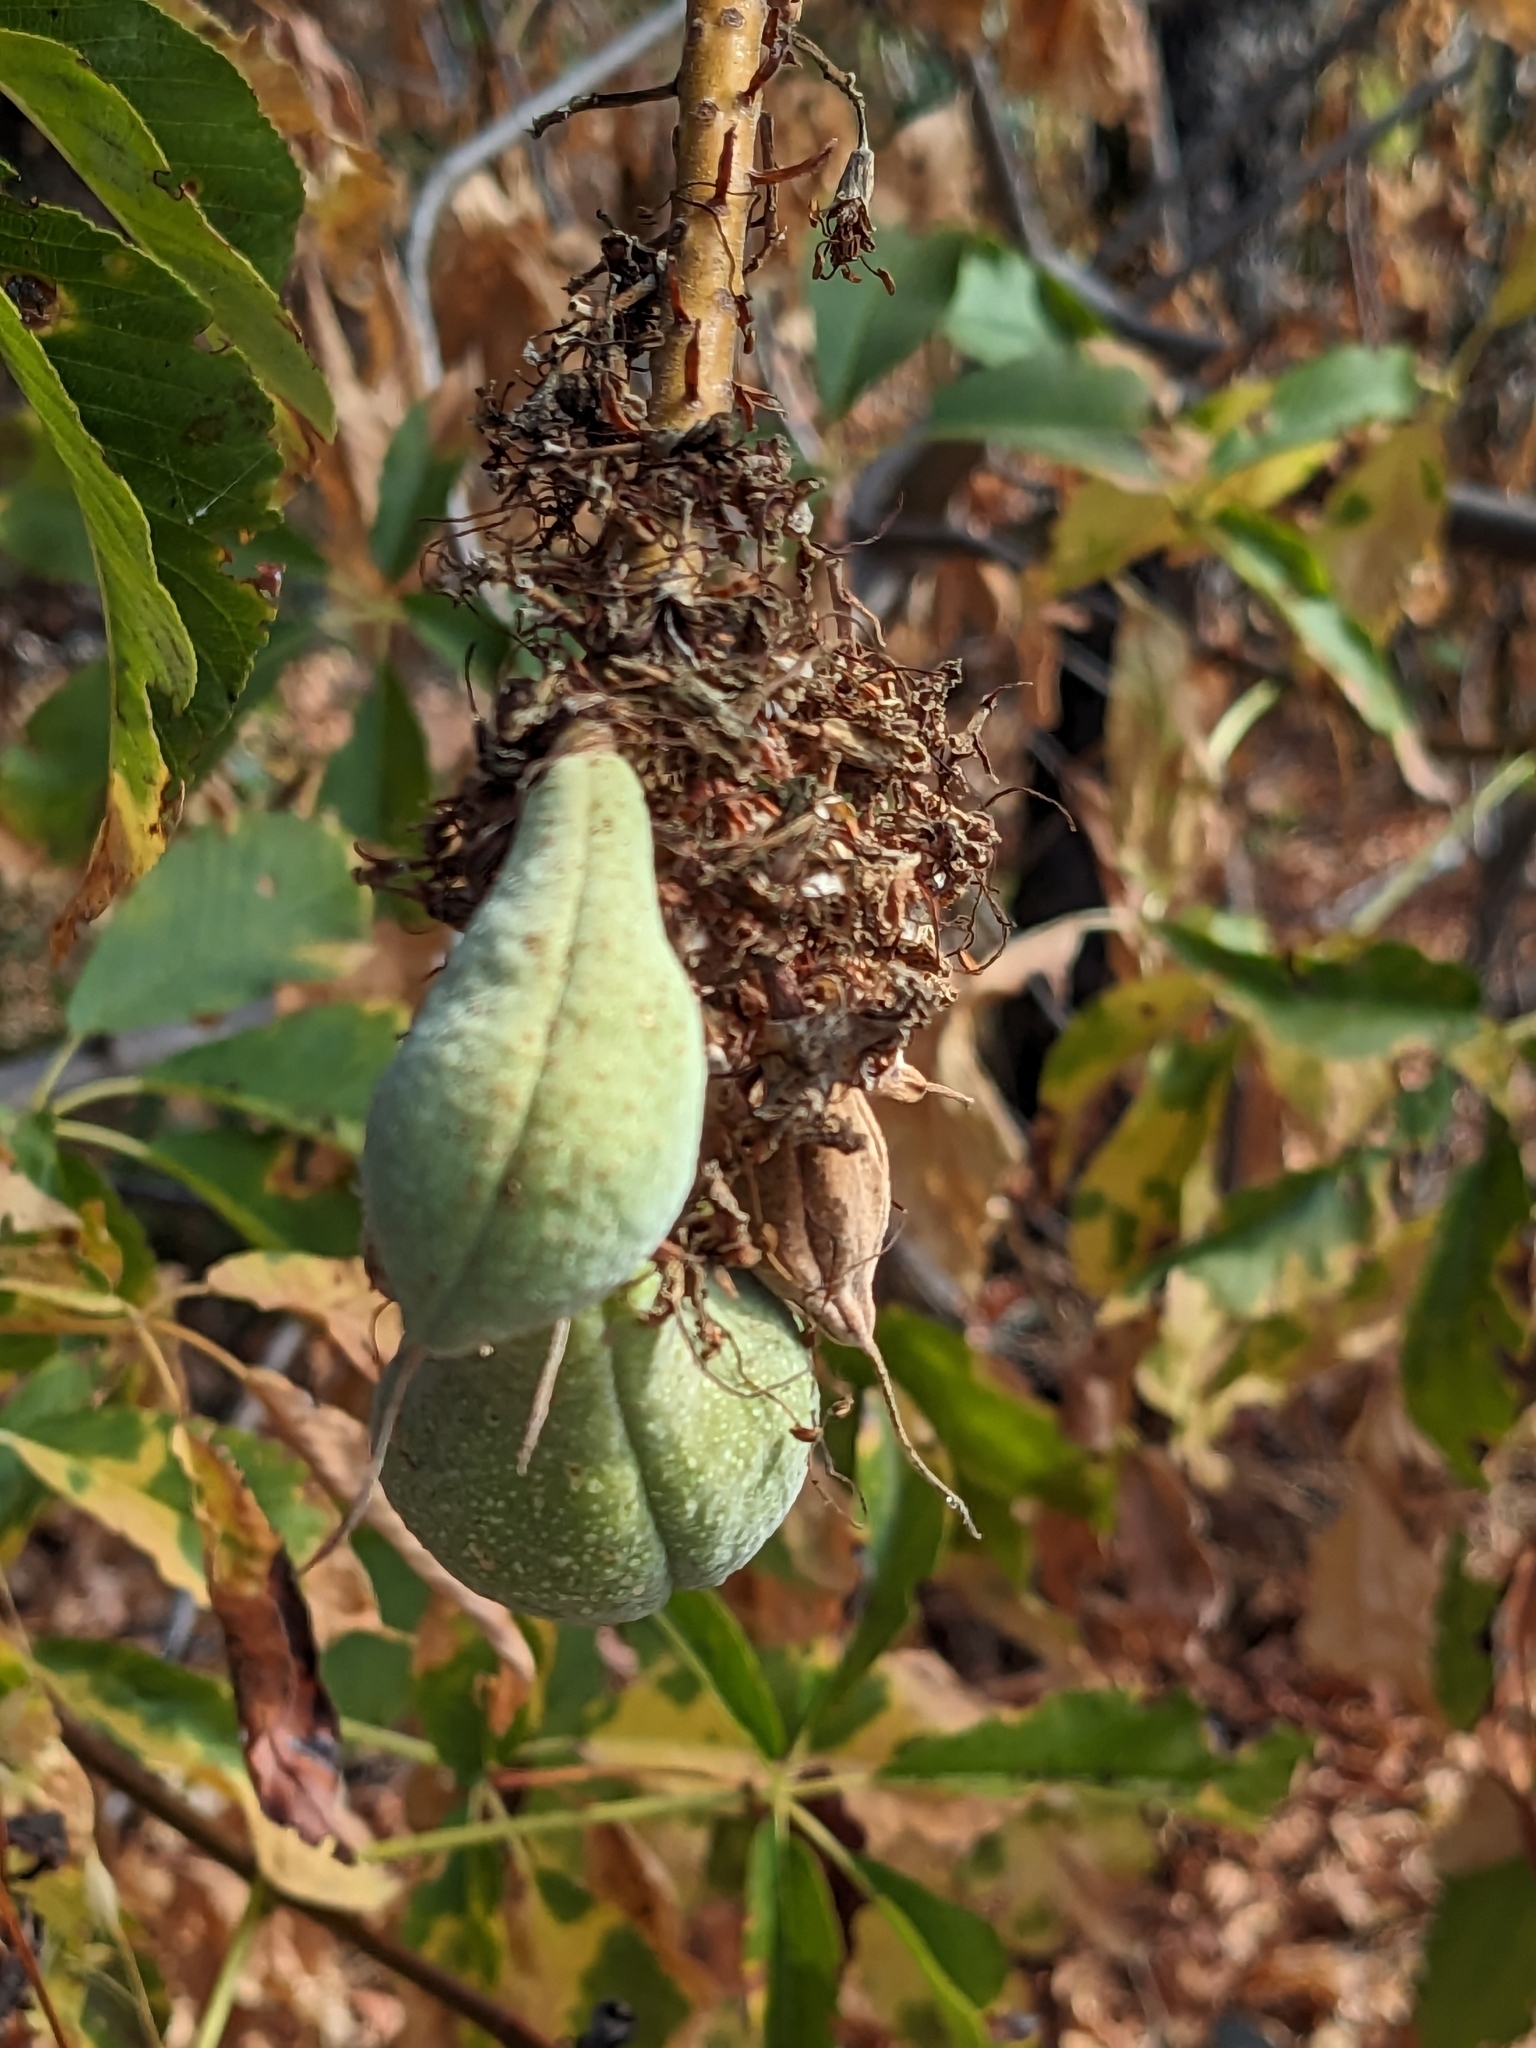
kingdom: Plantae
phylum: Tracheophyta
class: Magnoliopsida
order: Sapindales
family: Sapindaceae
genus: Aesculus
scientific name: Aesculus californica
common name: California buckeye
